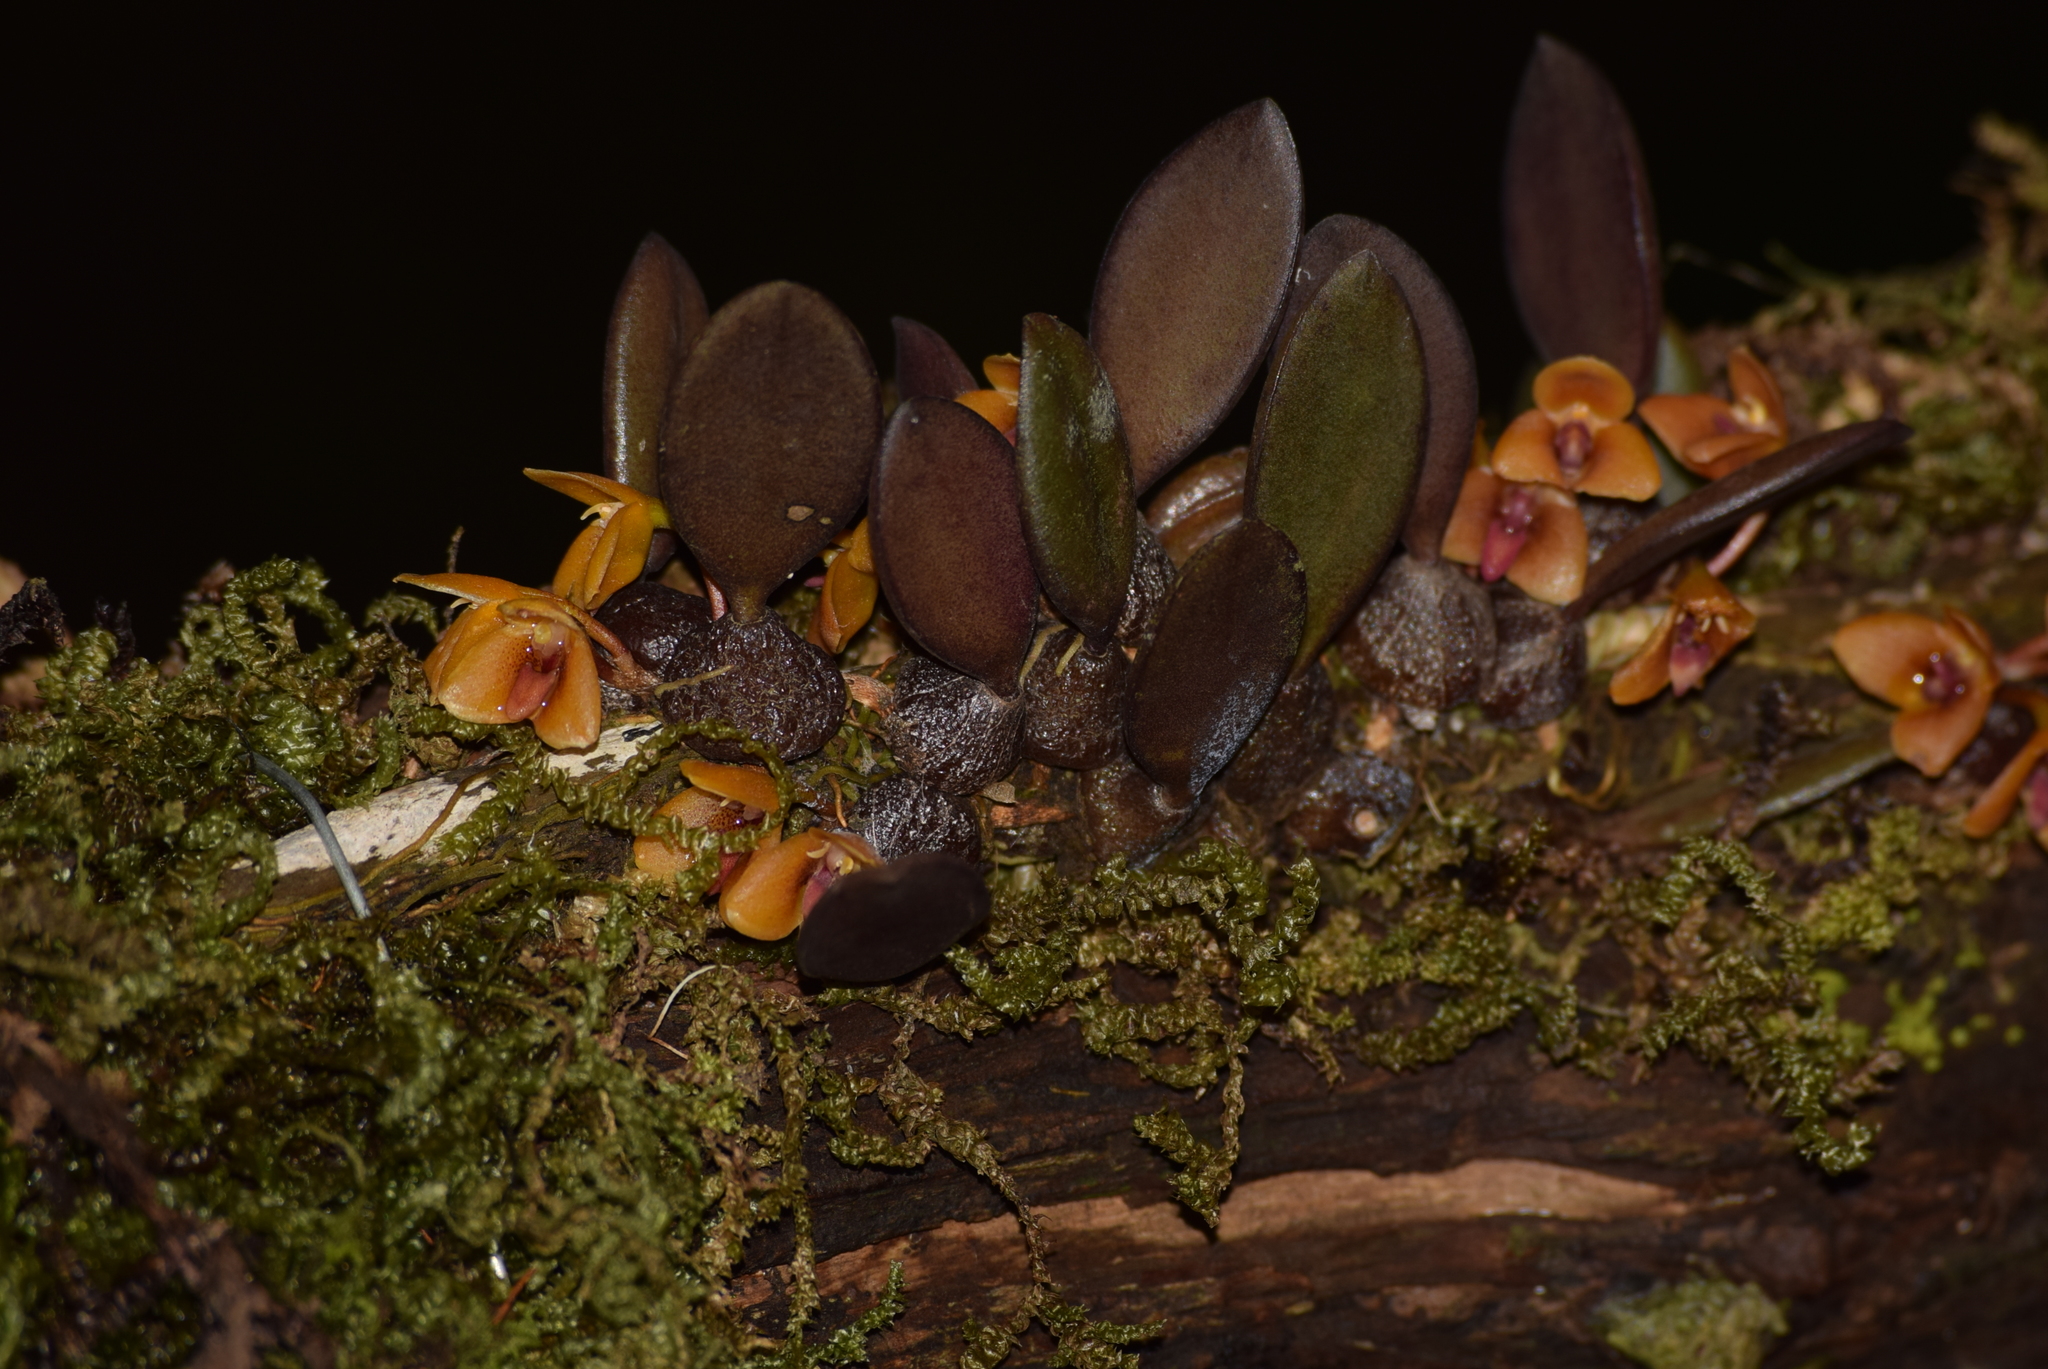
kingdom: Plantae
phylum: Tracheophyta
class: Liliopsida
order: Asparagales
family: Orchidaceae
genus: Bulbophyllum
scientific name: Bulbophyllum stocksii
